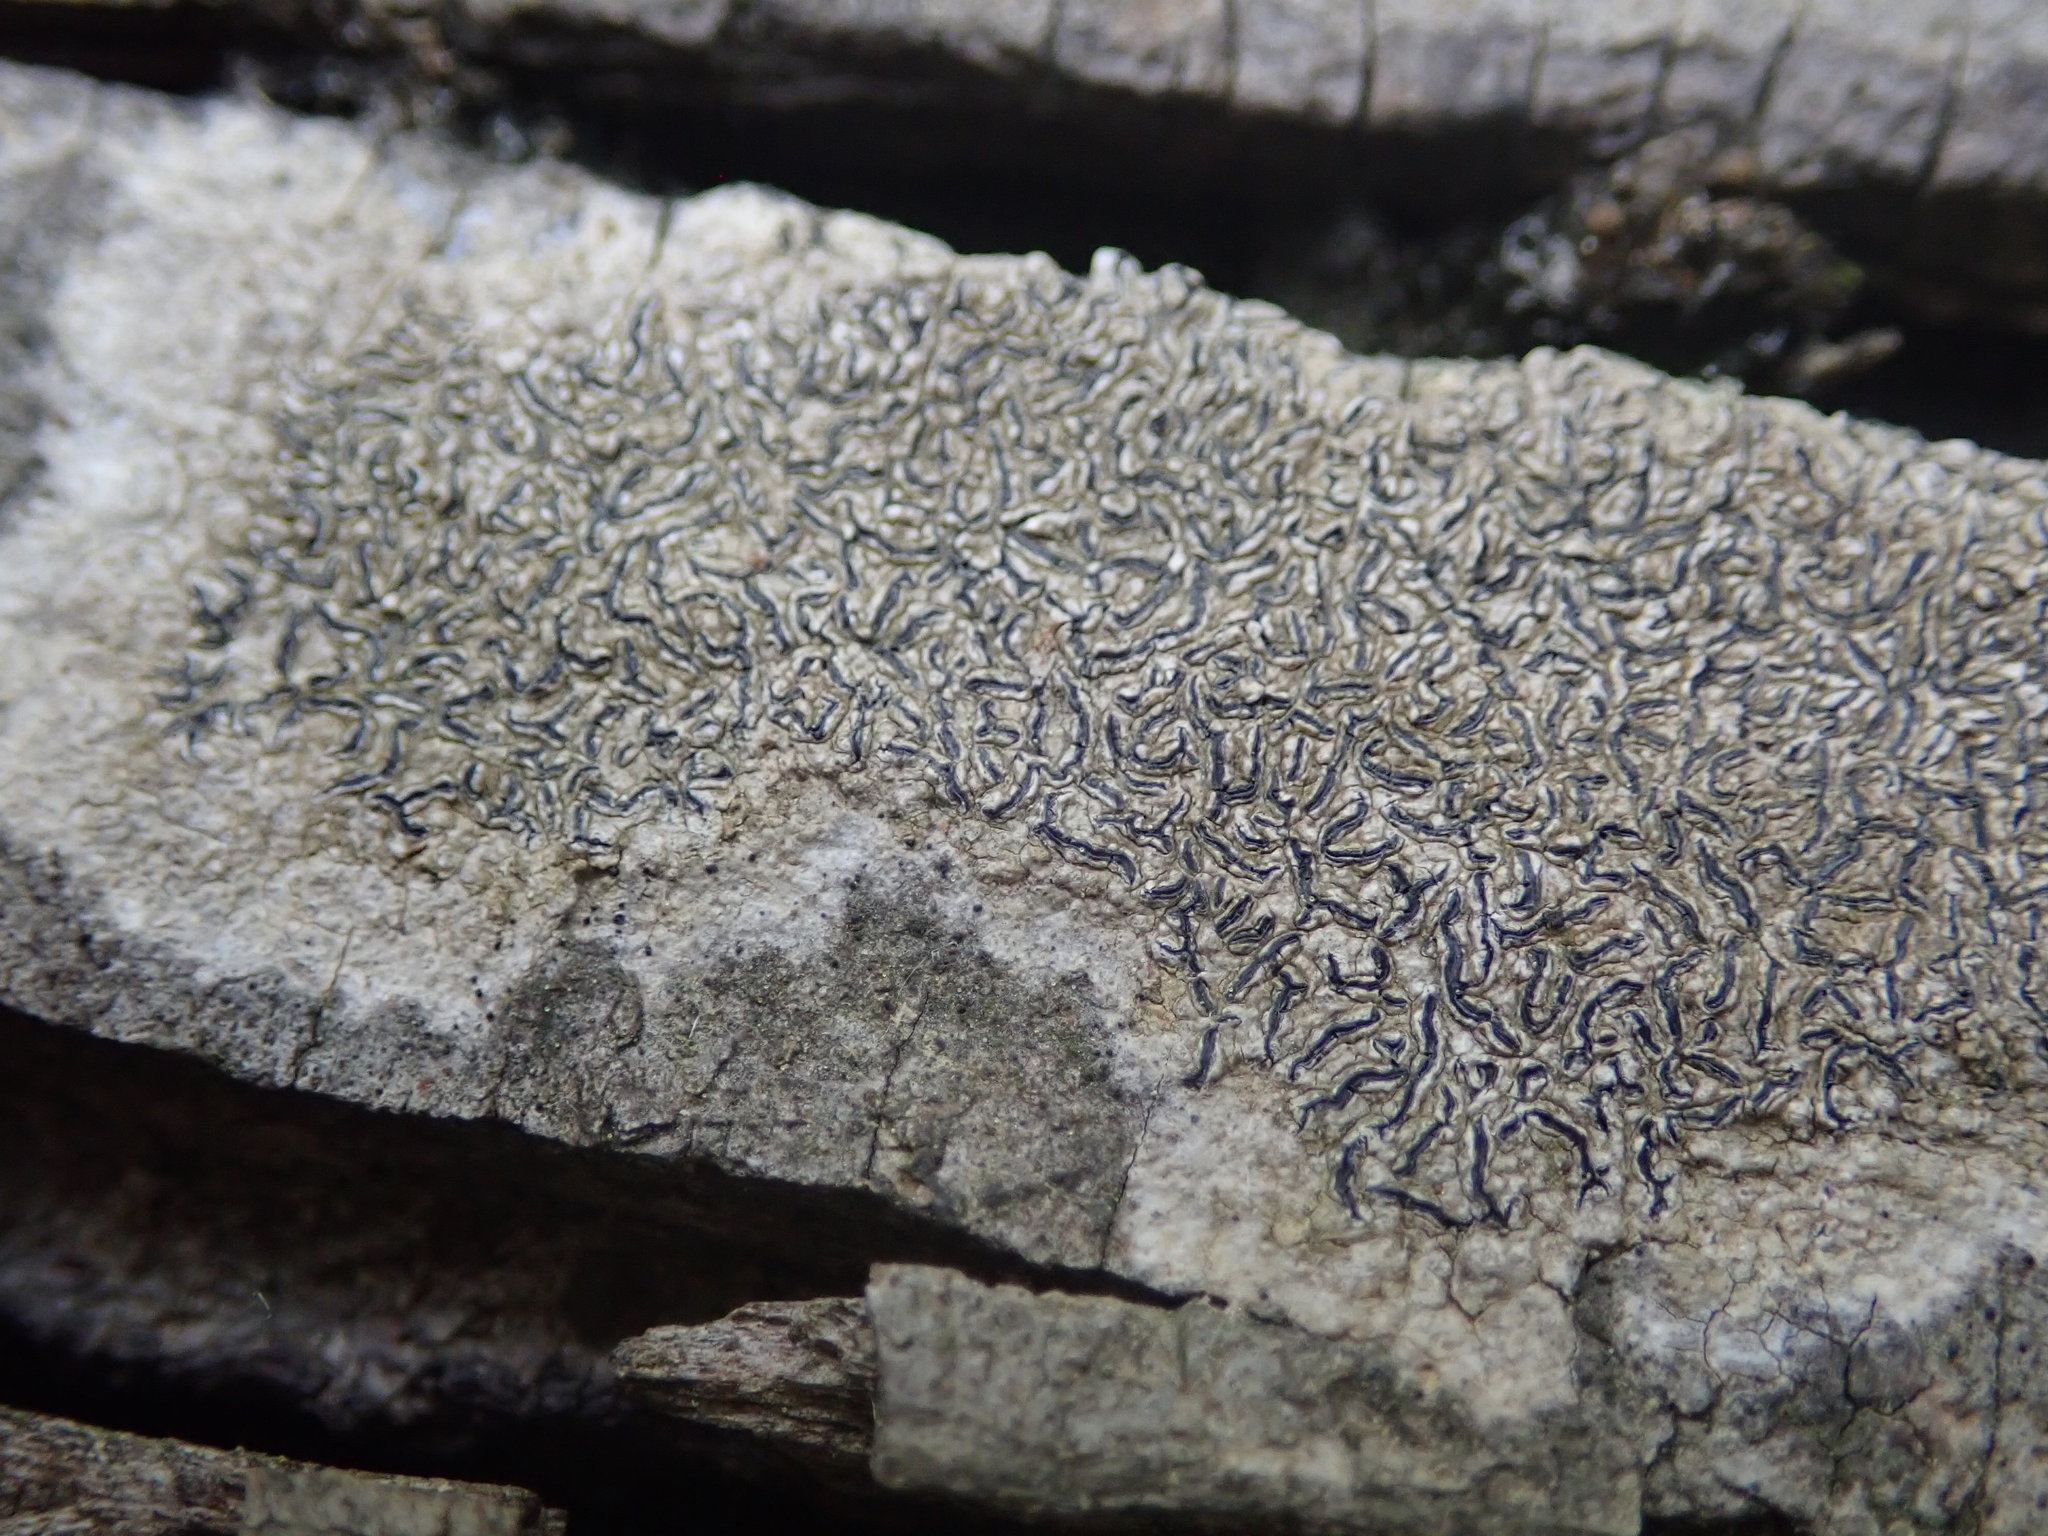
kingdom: Fungi
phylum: Ascomycota
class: Lecanoromycetes
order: Ostropales
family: Graphidaceae
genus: Graphis
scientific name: Graphis scripta
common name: Script lichen
